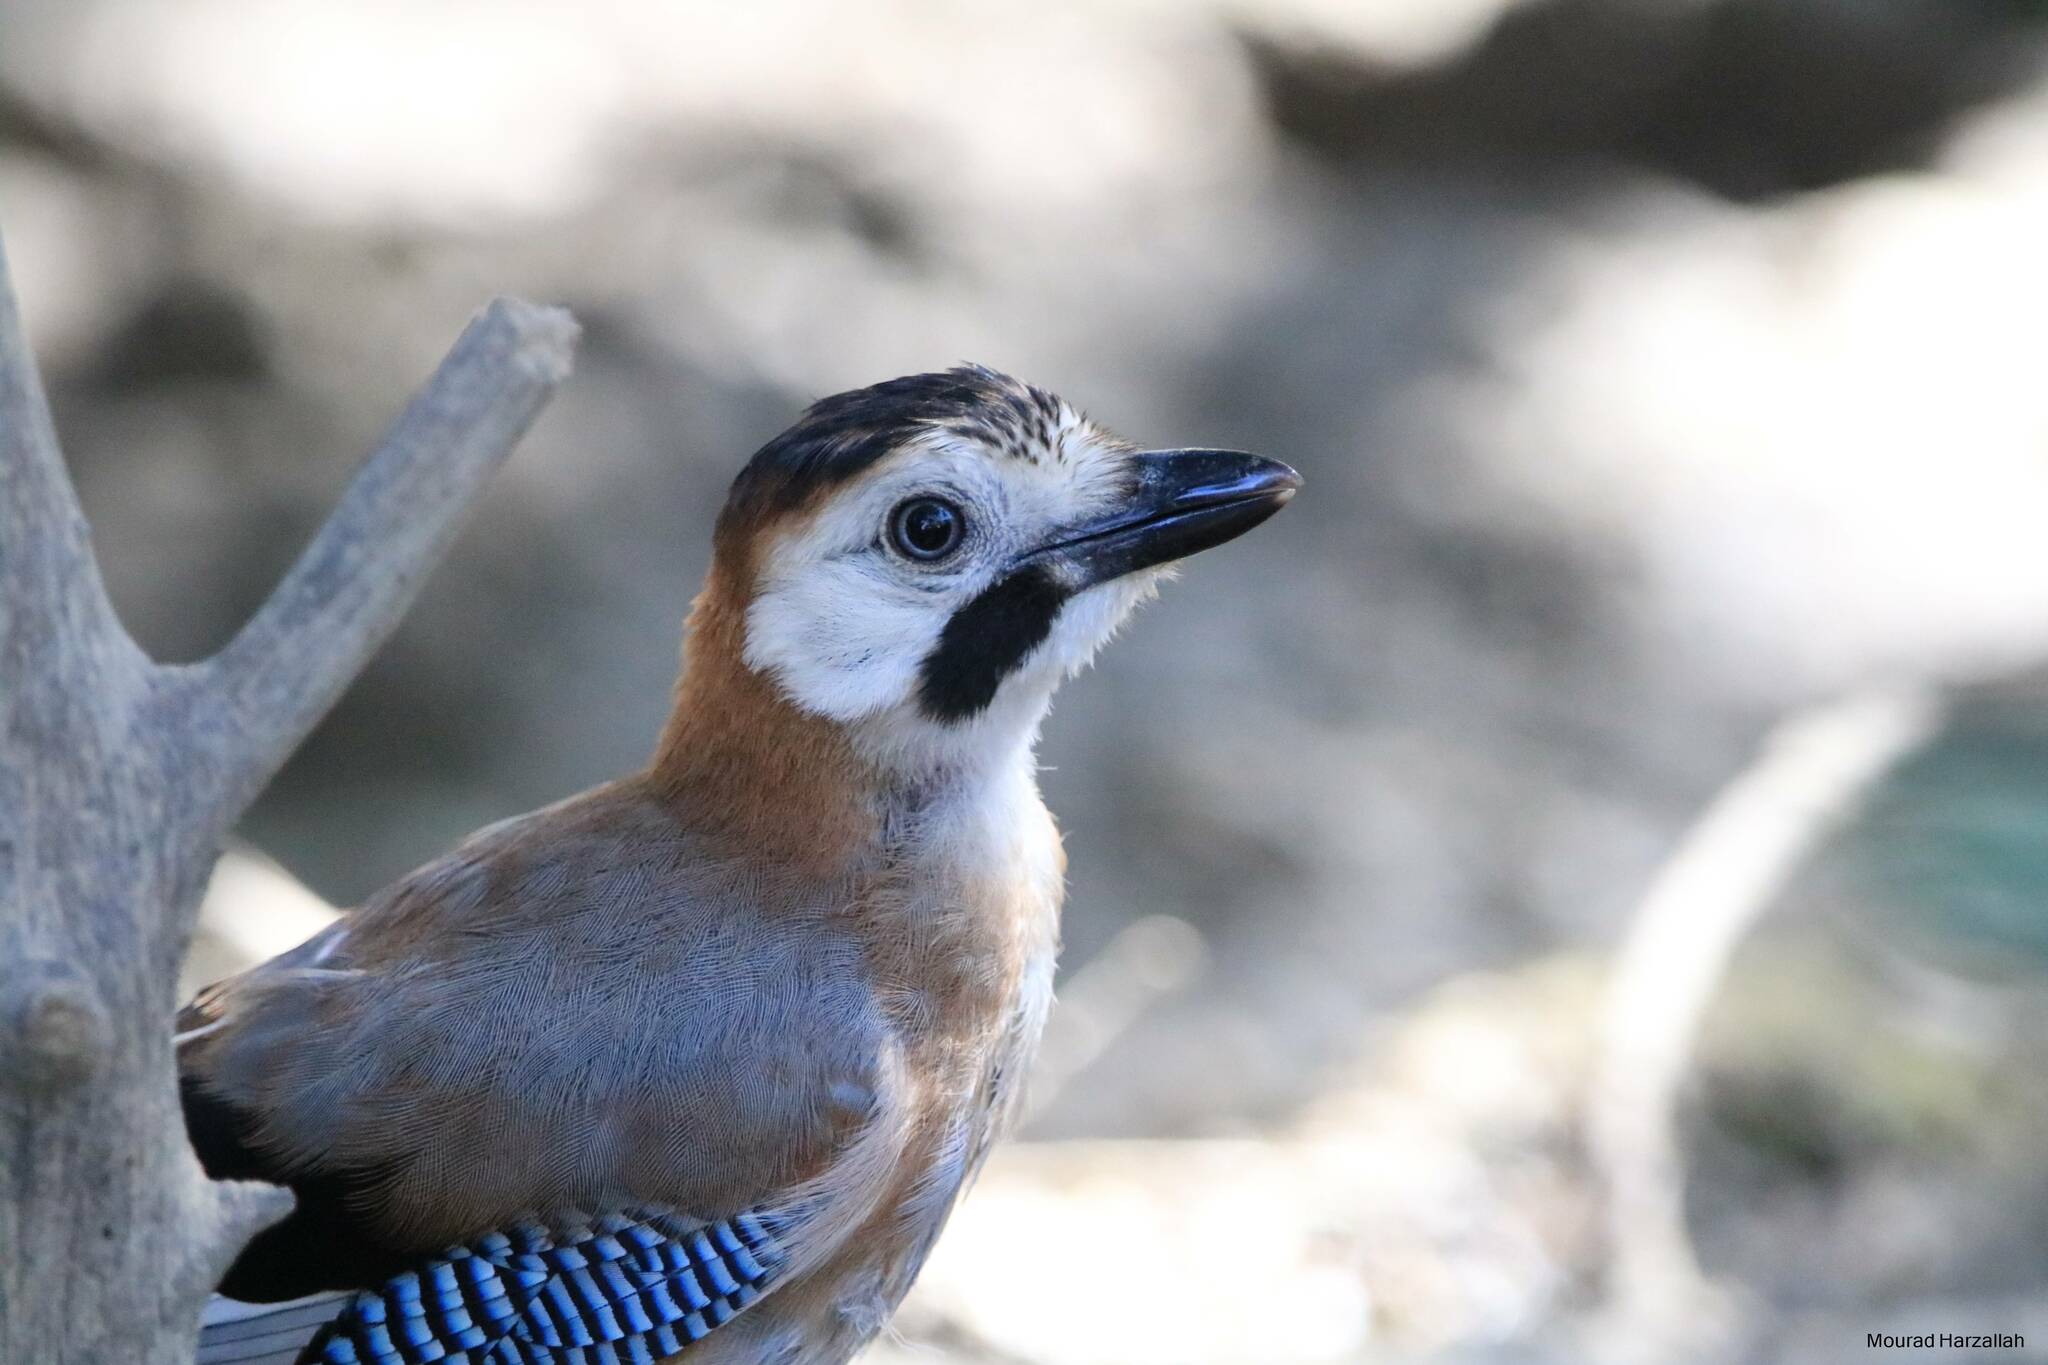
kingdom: Animalia
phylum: Chordata
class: Aves
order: Passeriformes
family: Corvidae
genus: Garrulus
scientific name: Garrulus glandarius
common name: Eurasian jay
